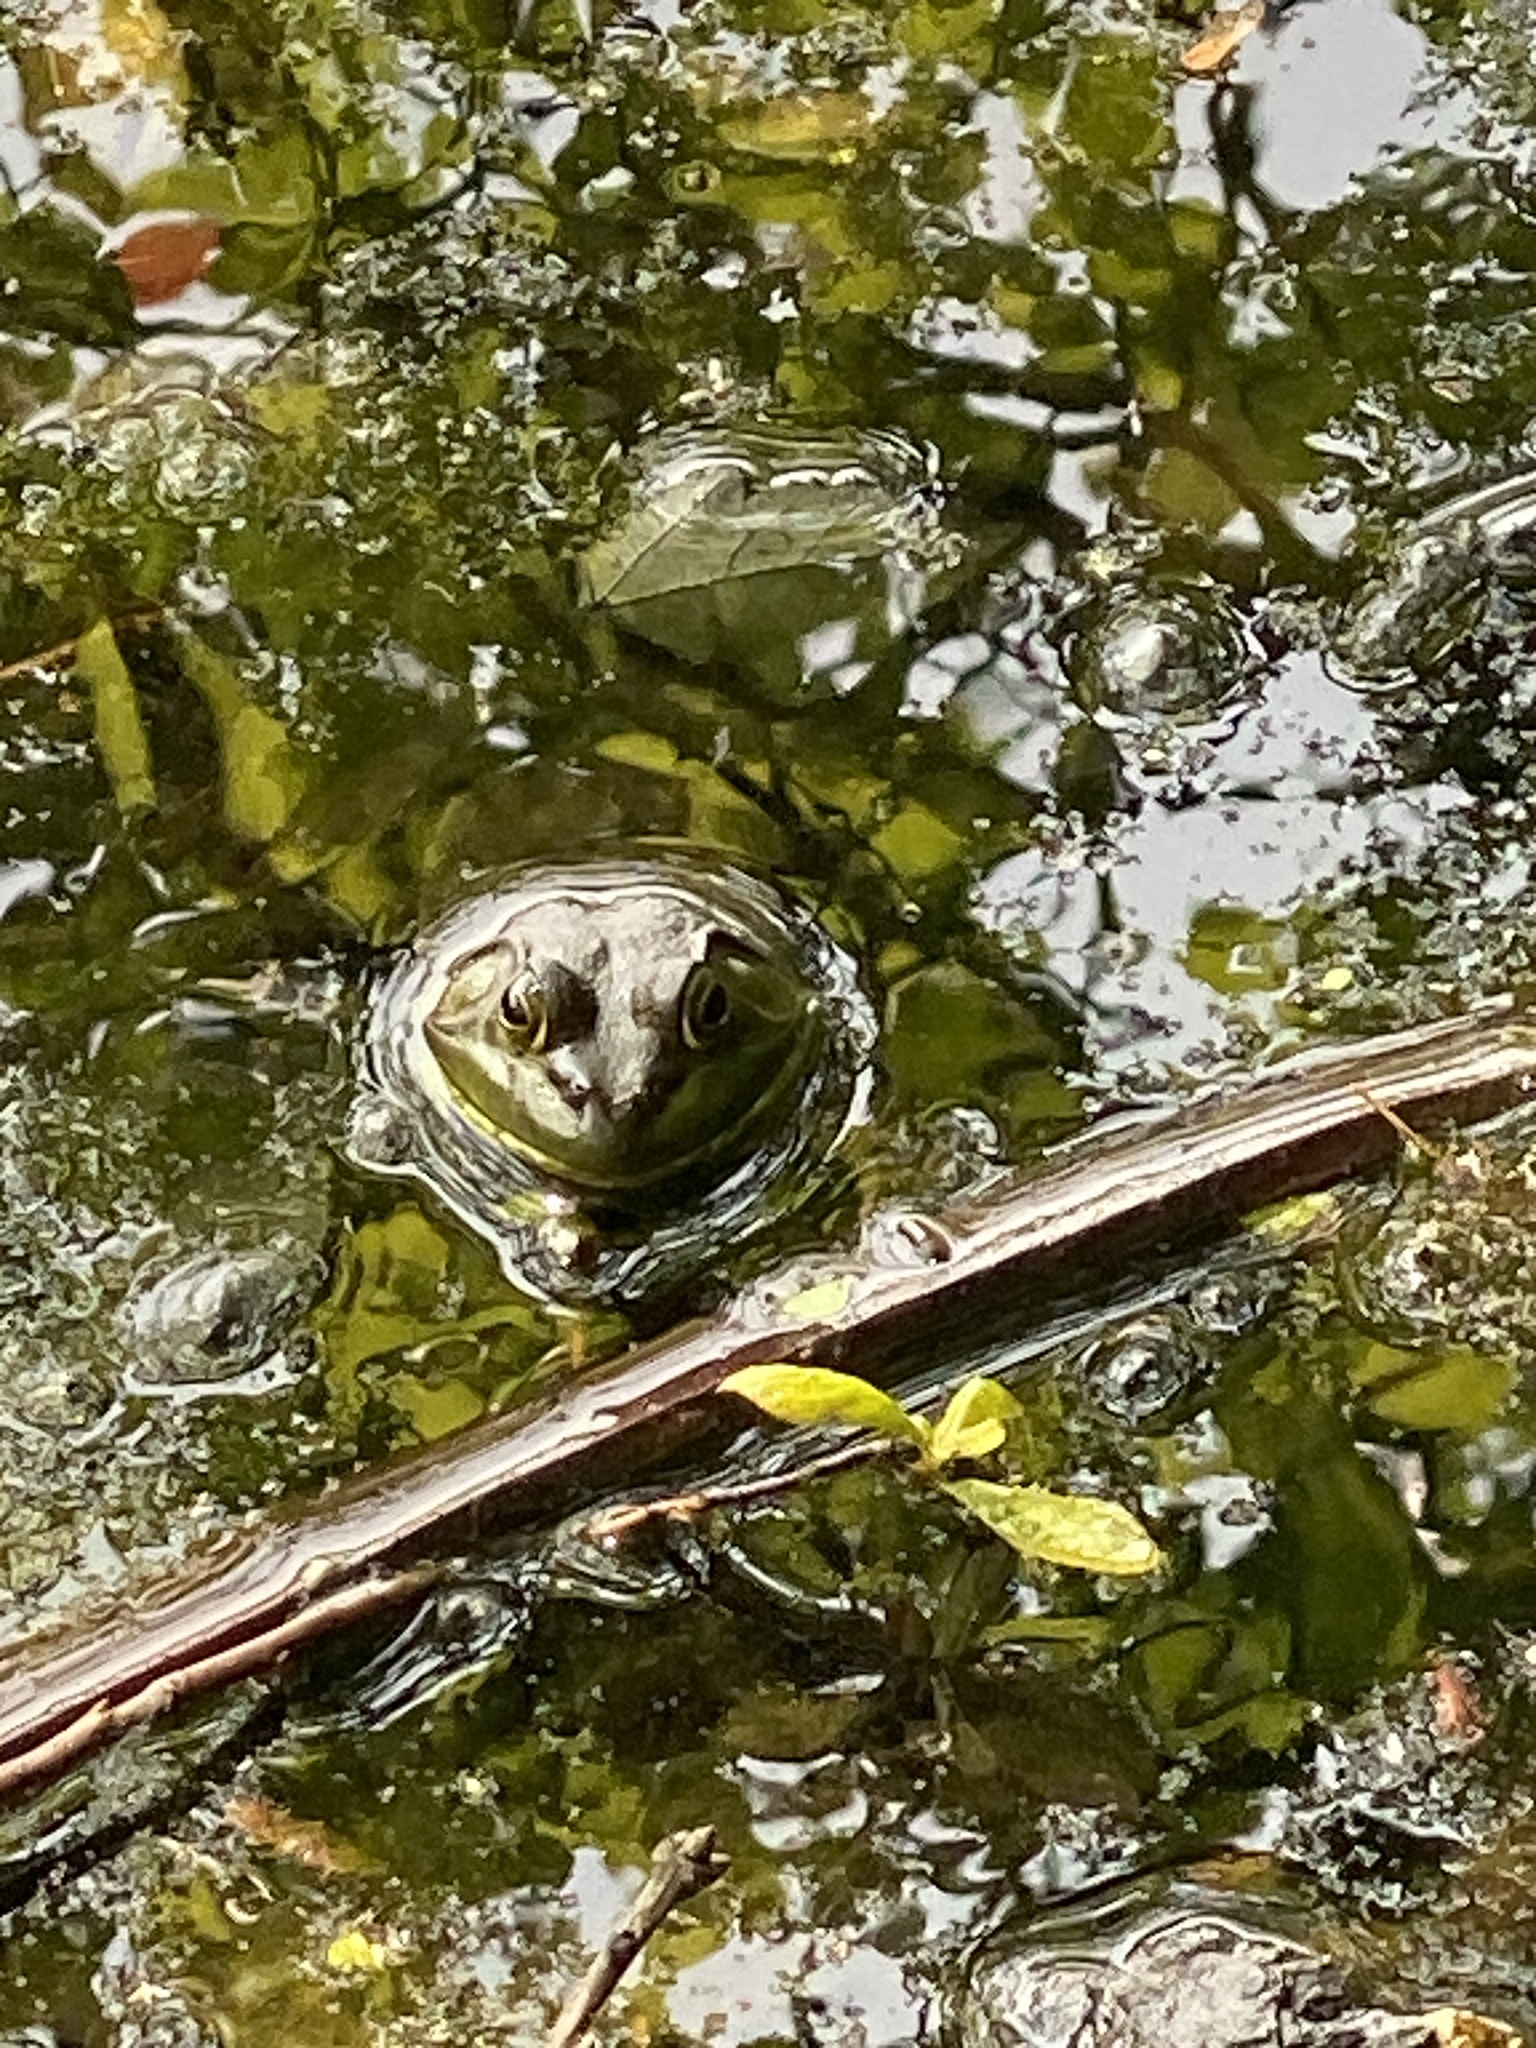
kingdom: Animalia
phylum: Chordata
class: Amphibia
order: Anura
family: Ranidae
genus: Lithobates
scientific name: Lithobates catesbeianus
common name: American bullfrog
